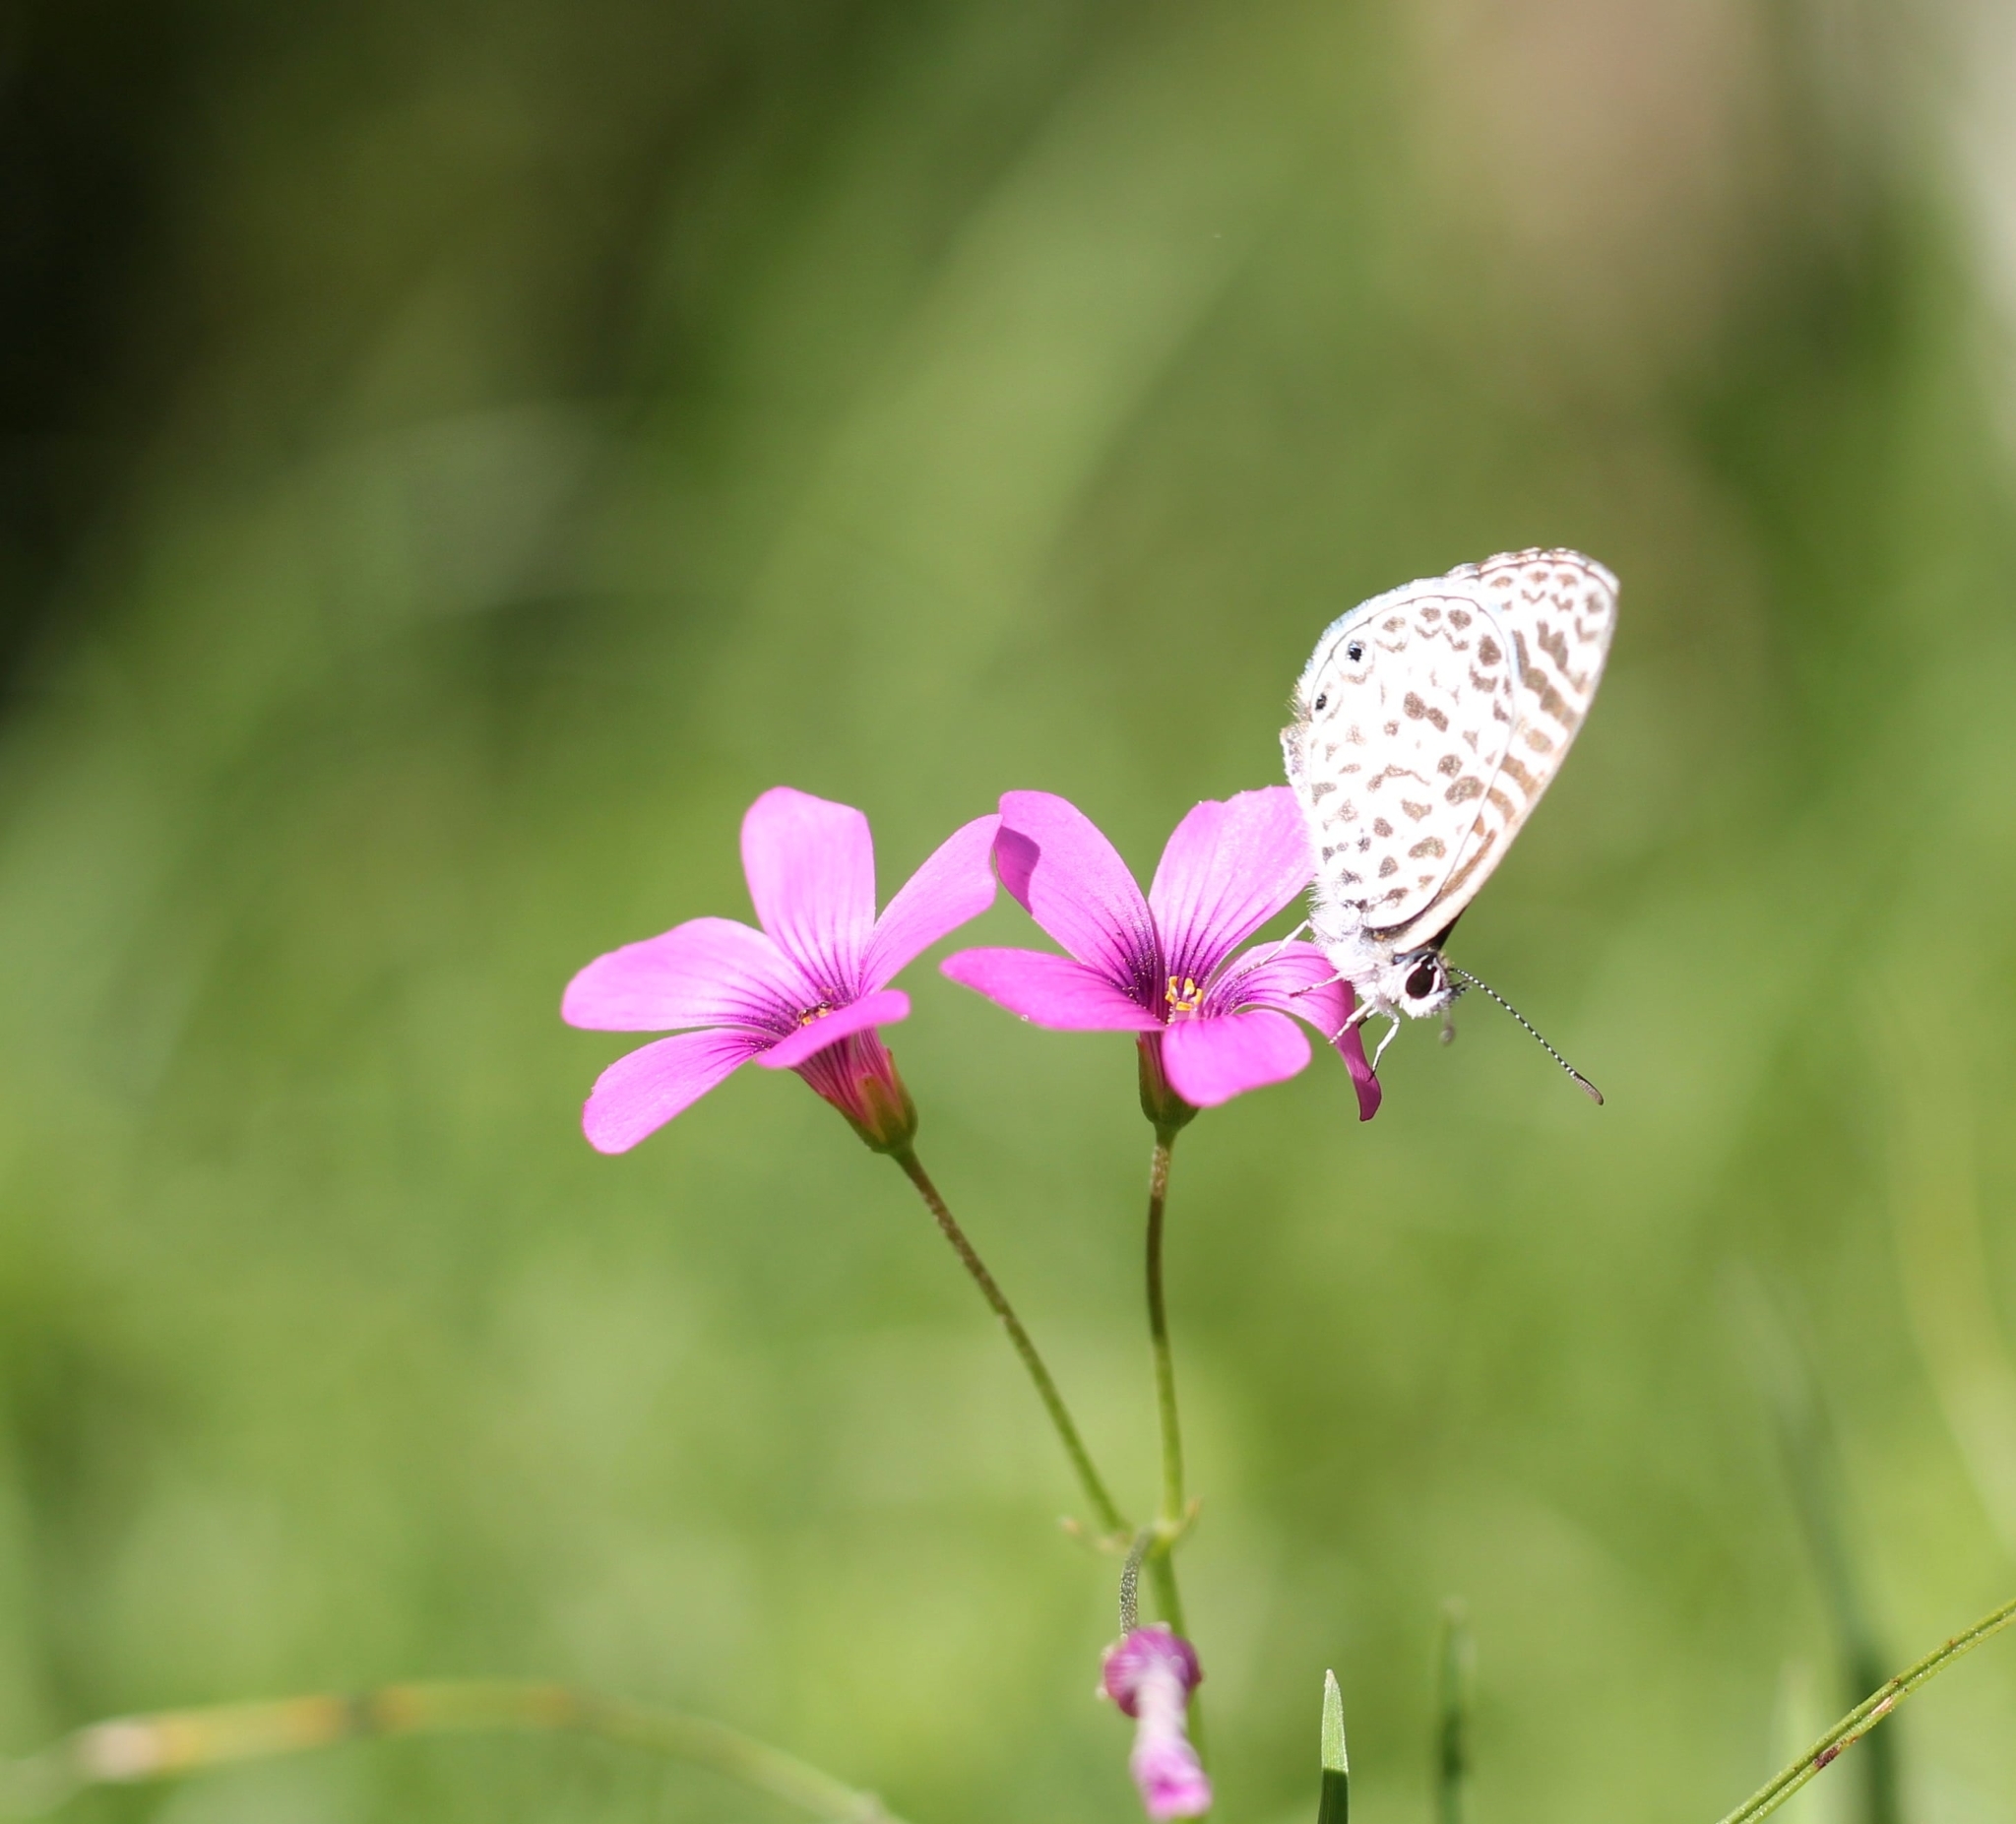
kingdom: Animalia
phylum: Arthropoda
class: Insecta
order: Lepidoptera
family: Lycaenidae
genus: Leptotes
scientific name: Leptotes cassius
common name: Cassius blue
